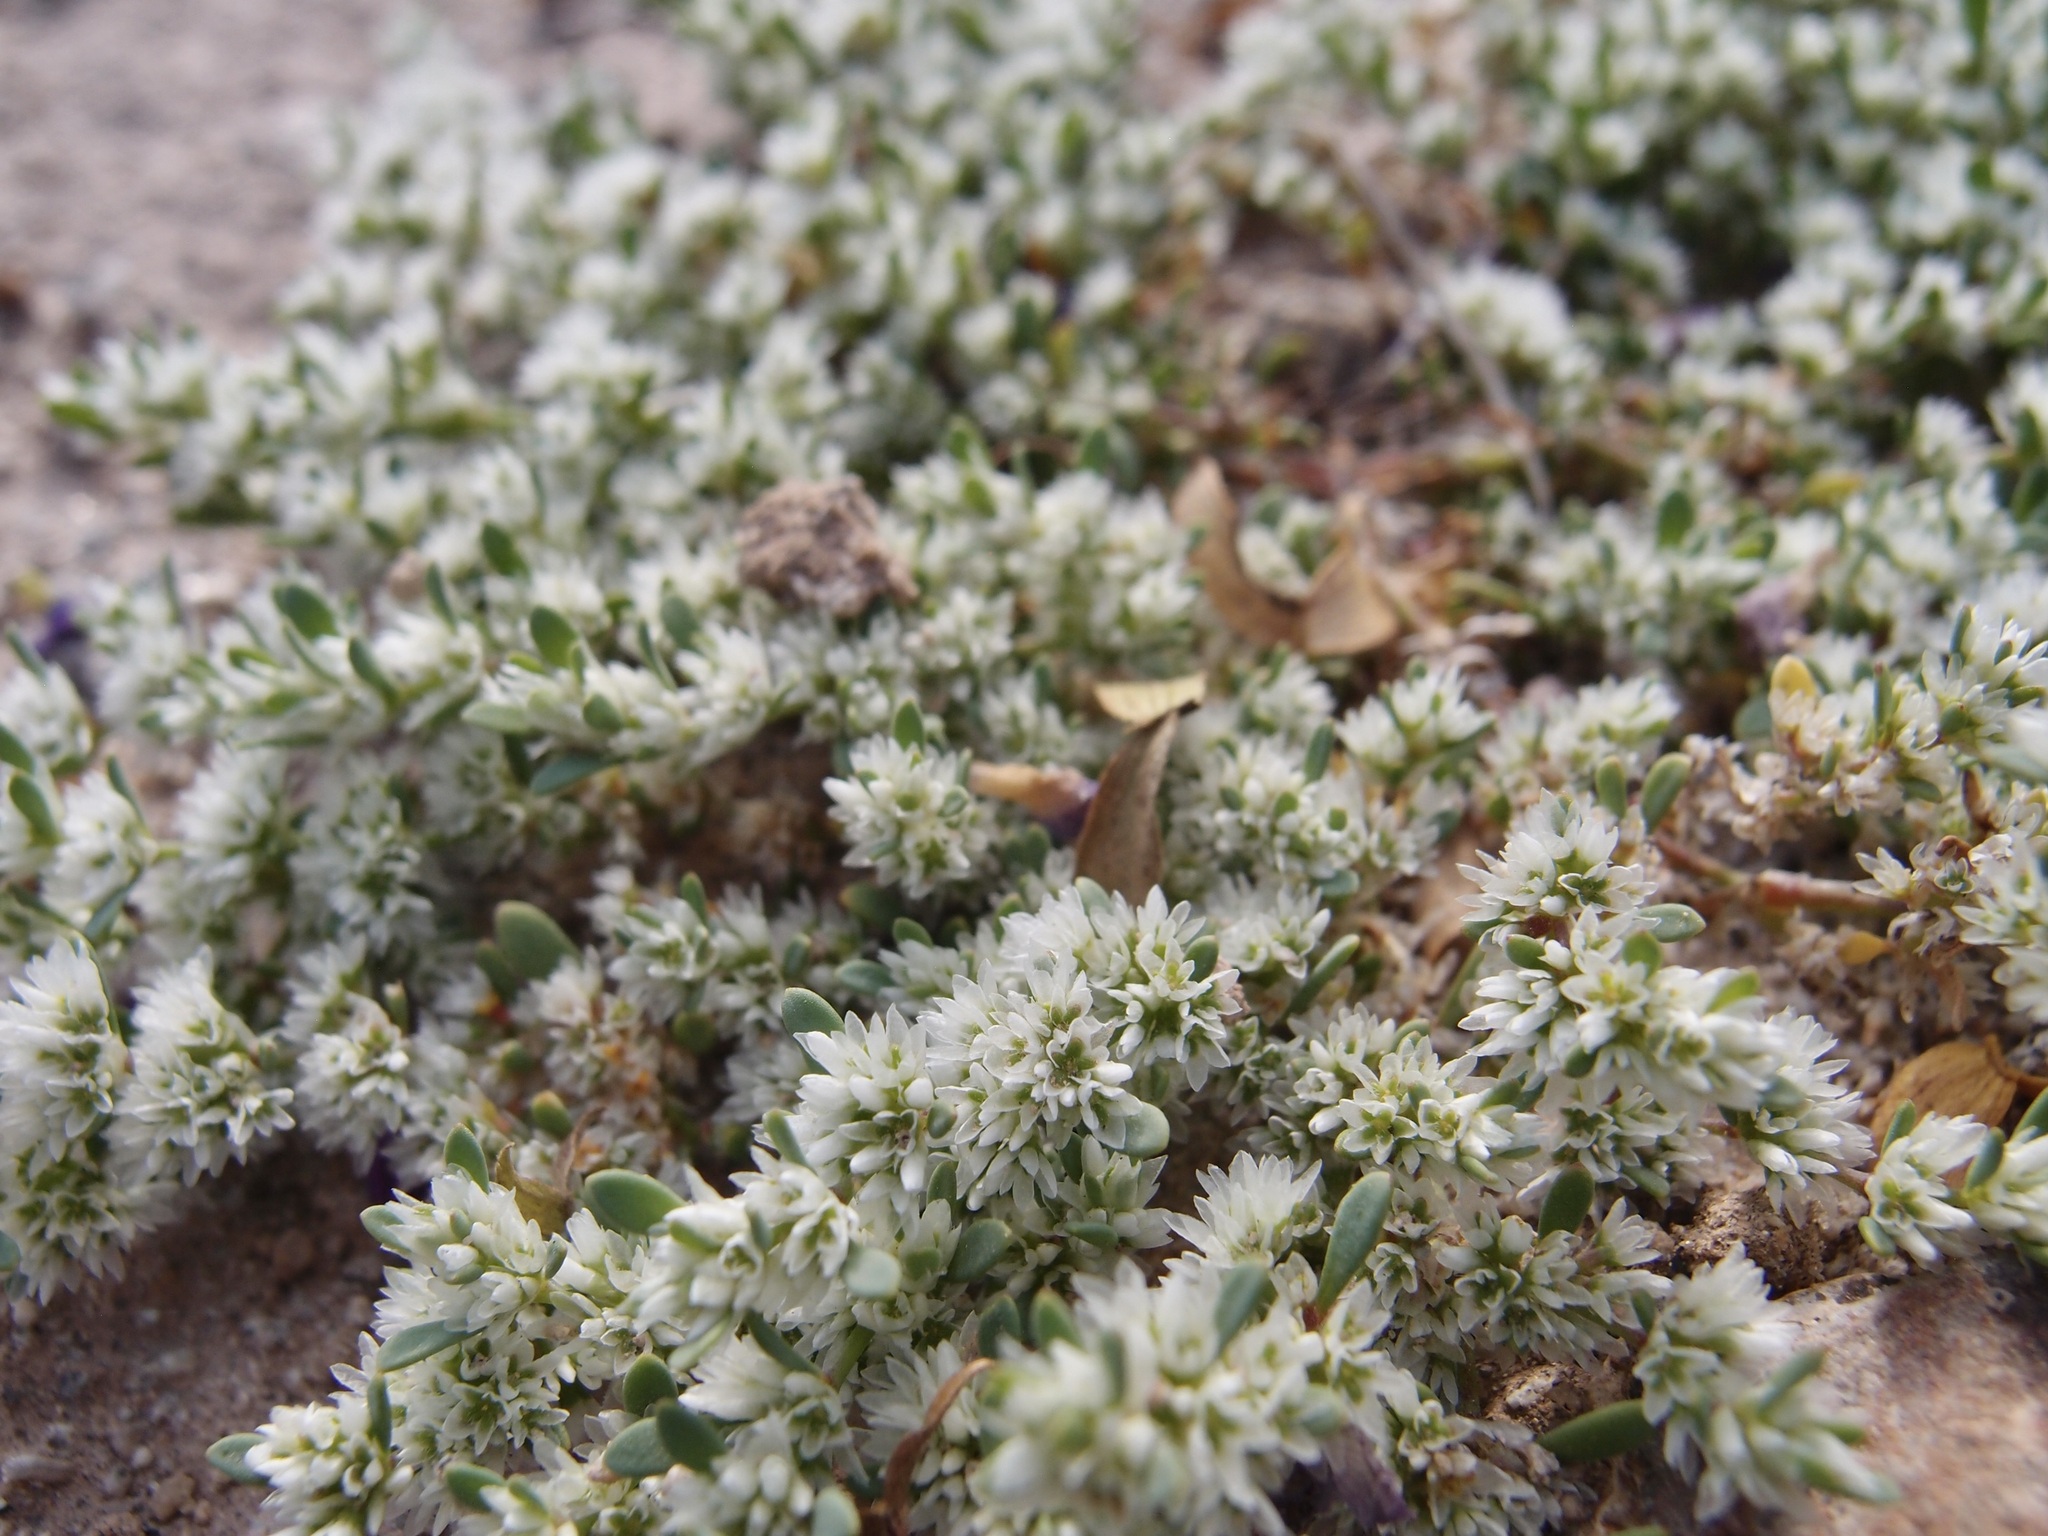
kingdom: Plantae
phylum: Tracheophyta
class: Magnoliopsida
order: Caryophyllales
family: Caryophyllaceae
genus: Achyronychia
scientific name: Achyronychia cooperi
